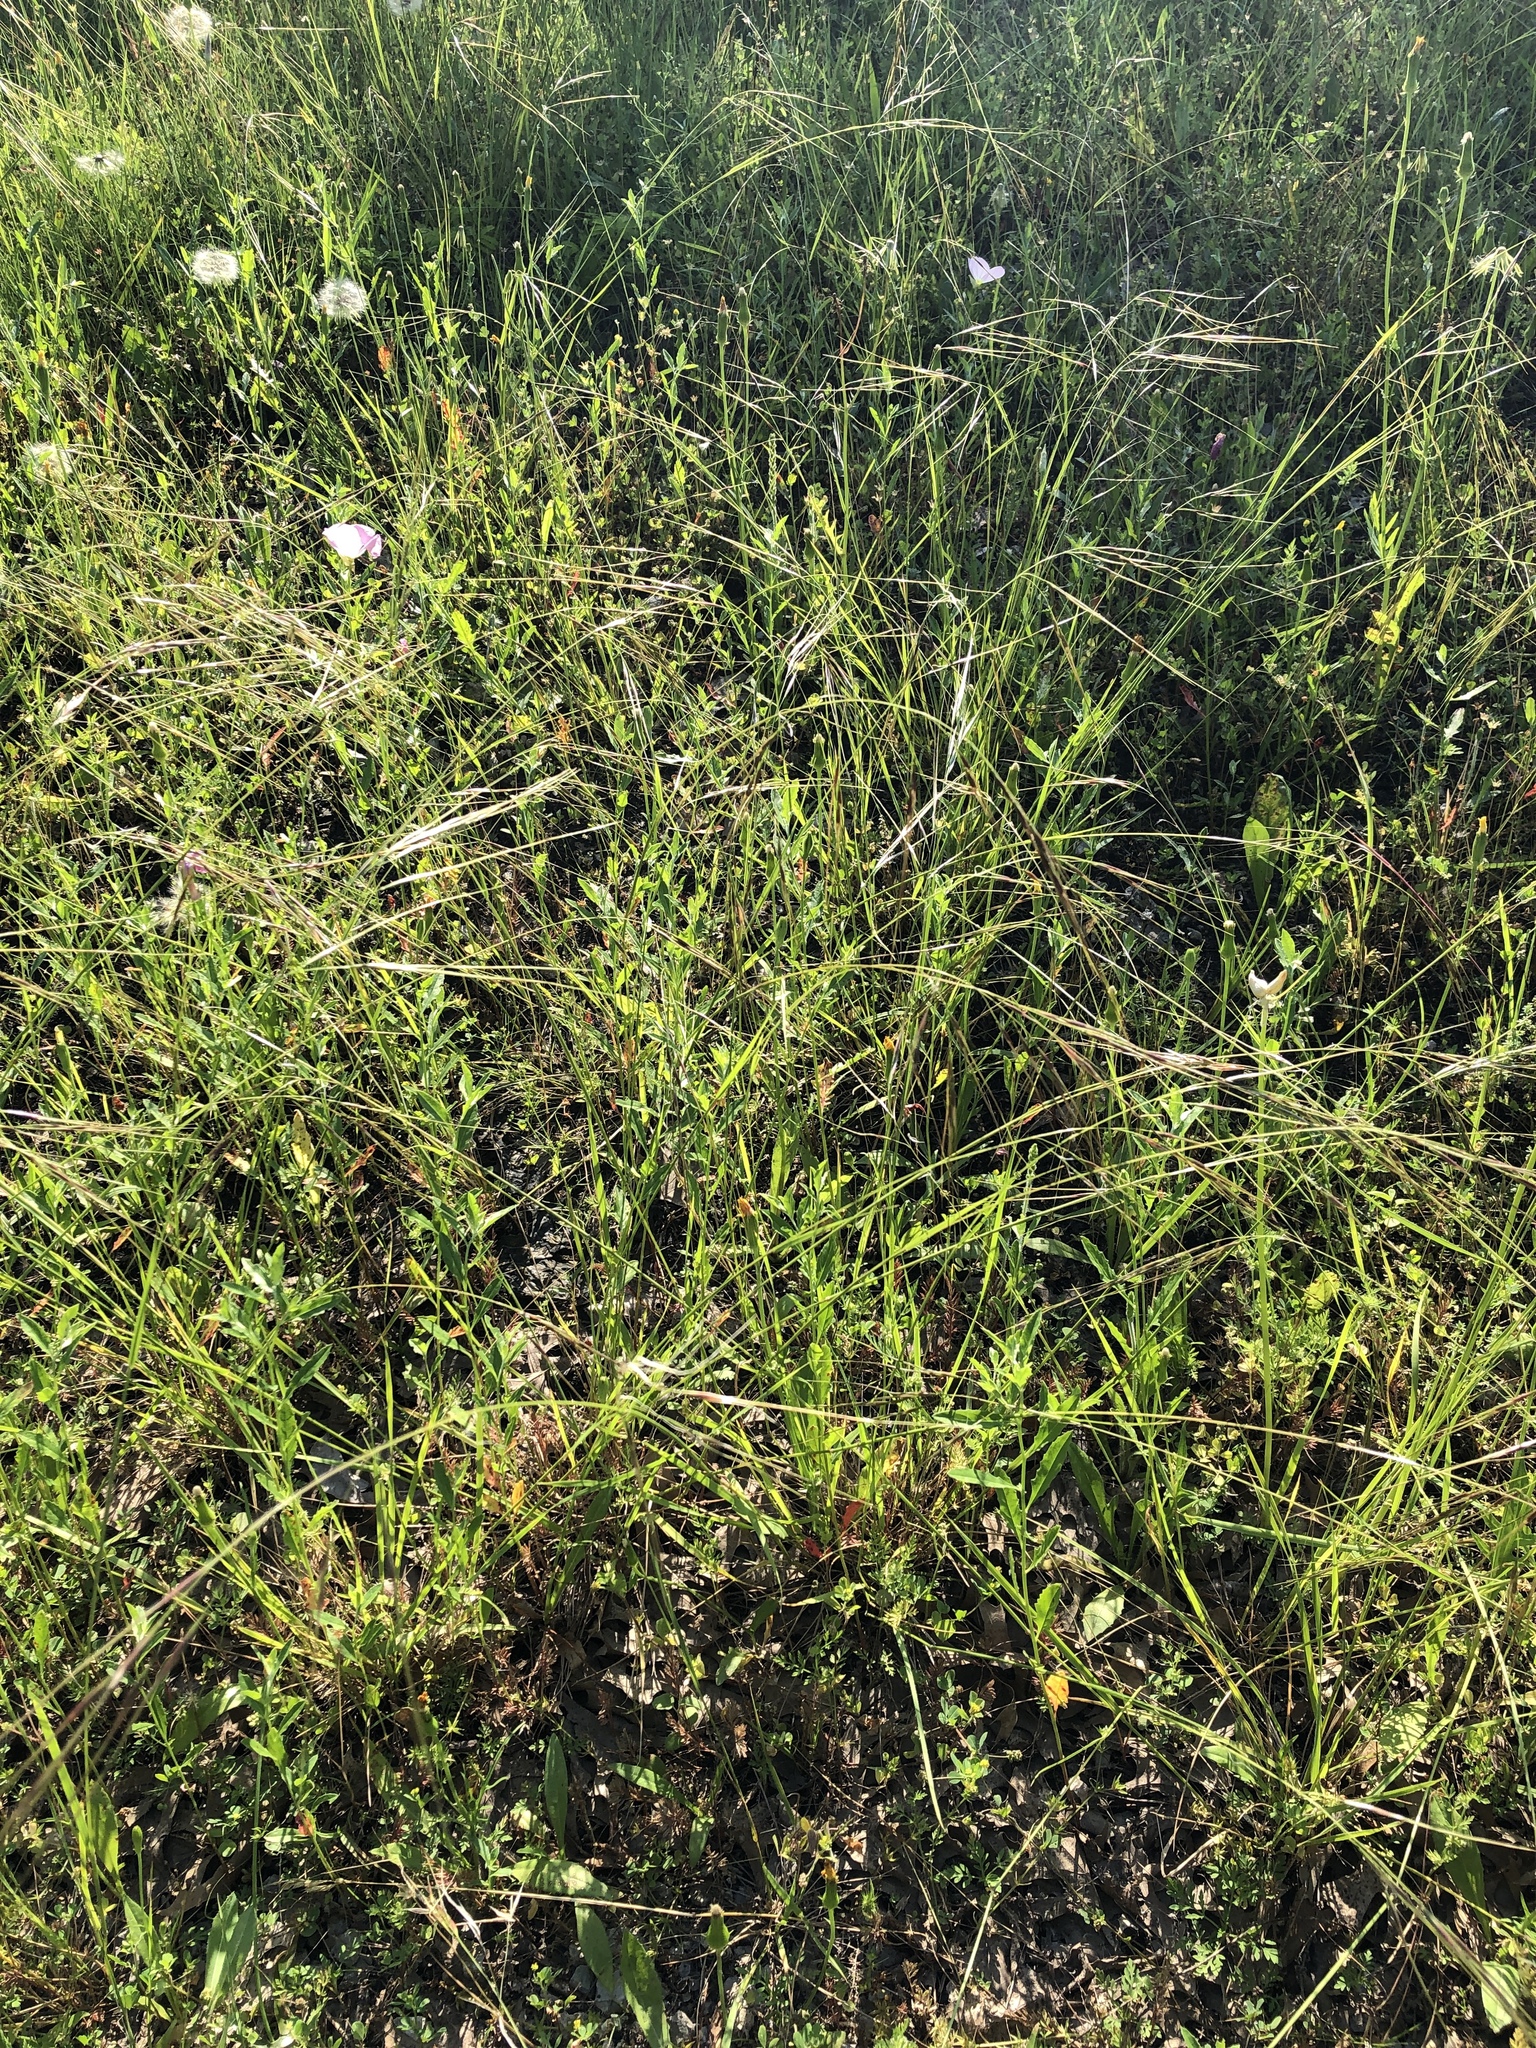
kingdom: Plantae
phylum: Tracheophyta
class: Liliopsida
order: Poales
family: Poaceae
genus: Nassella
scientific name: Nassella leucotricha
